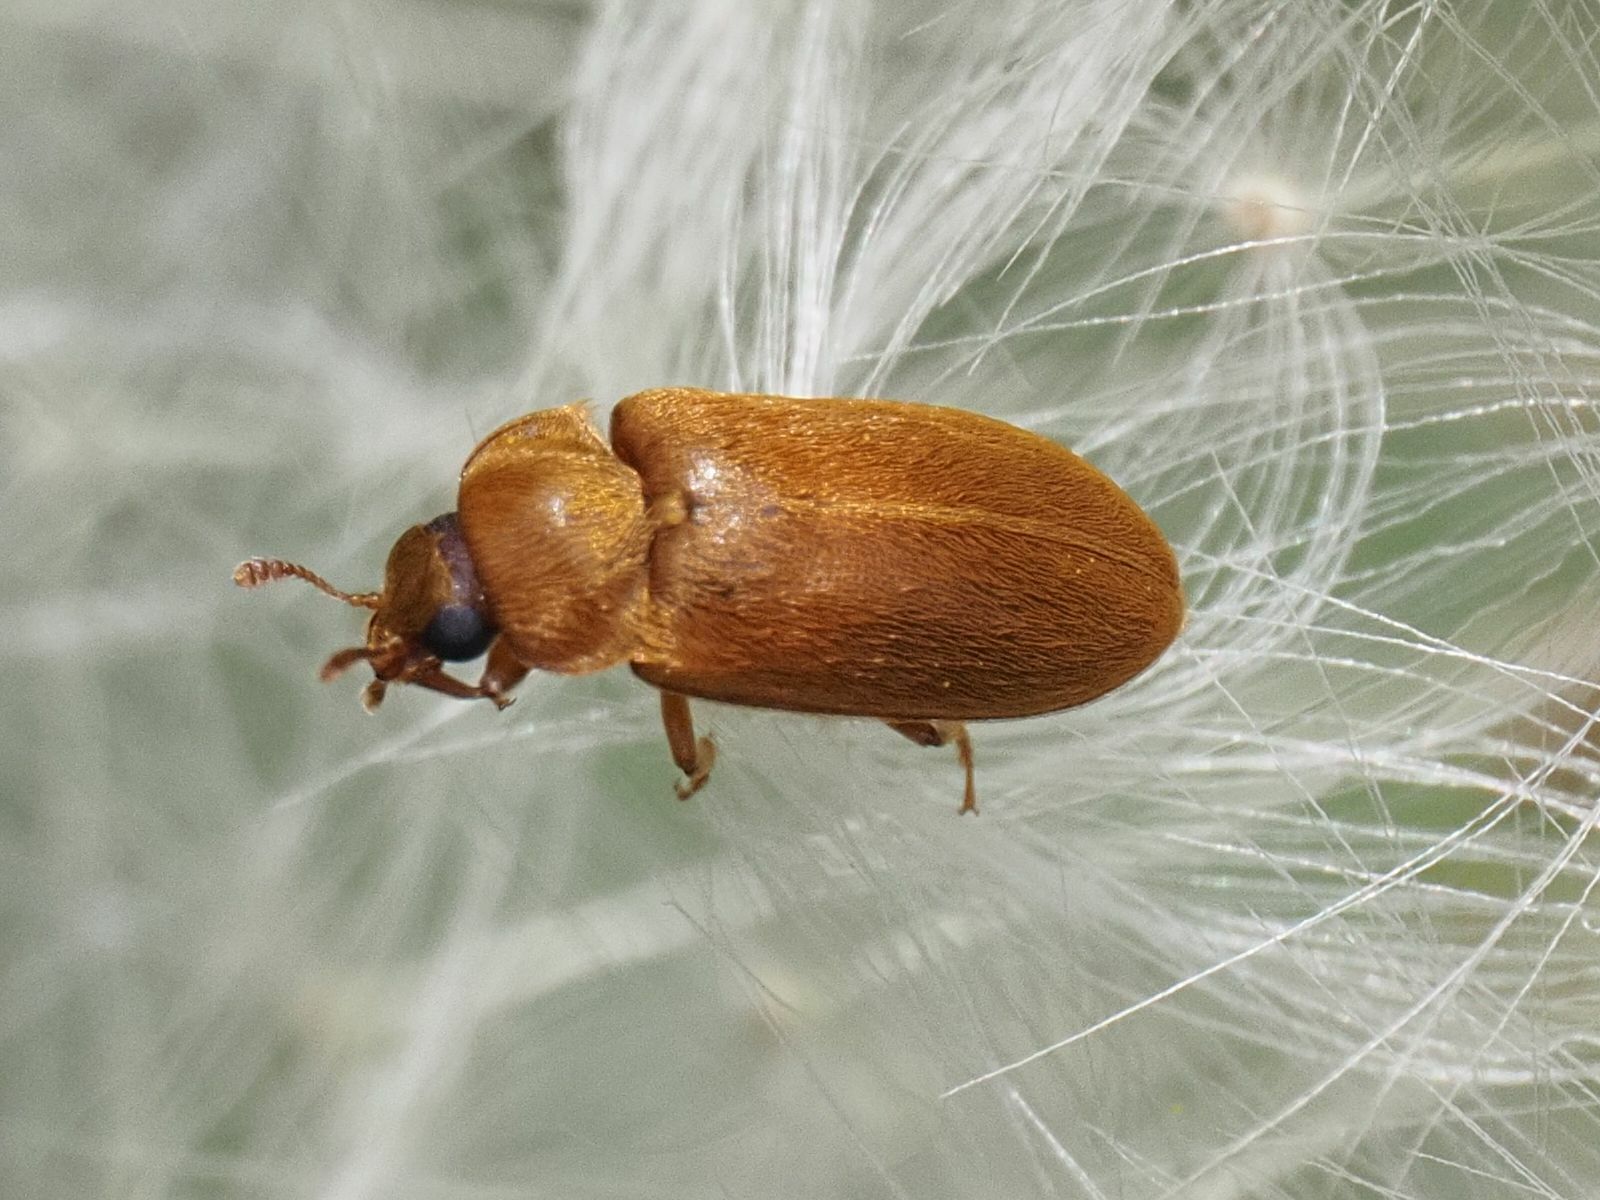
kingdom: Animalia
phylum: Arthropoda
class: Insecta
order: Coleoptera
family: Byturidae
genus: Byturus
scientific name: Byturus ochraceus
